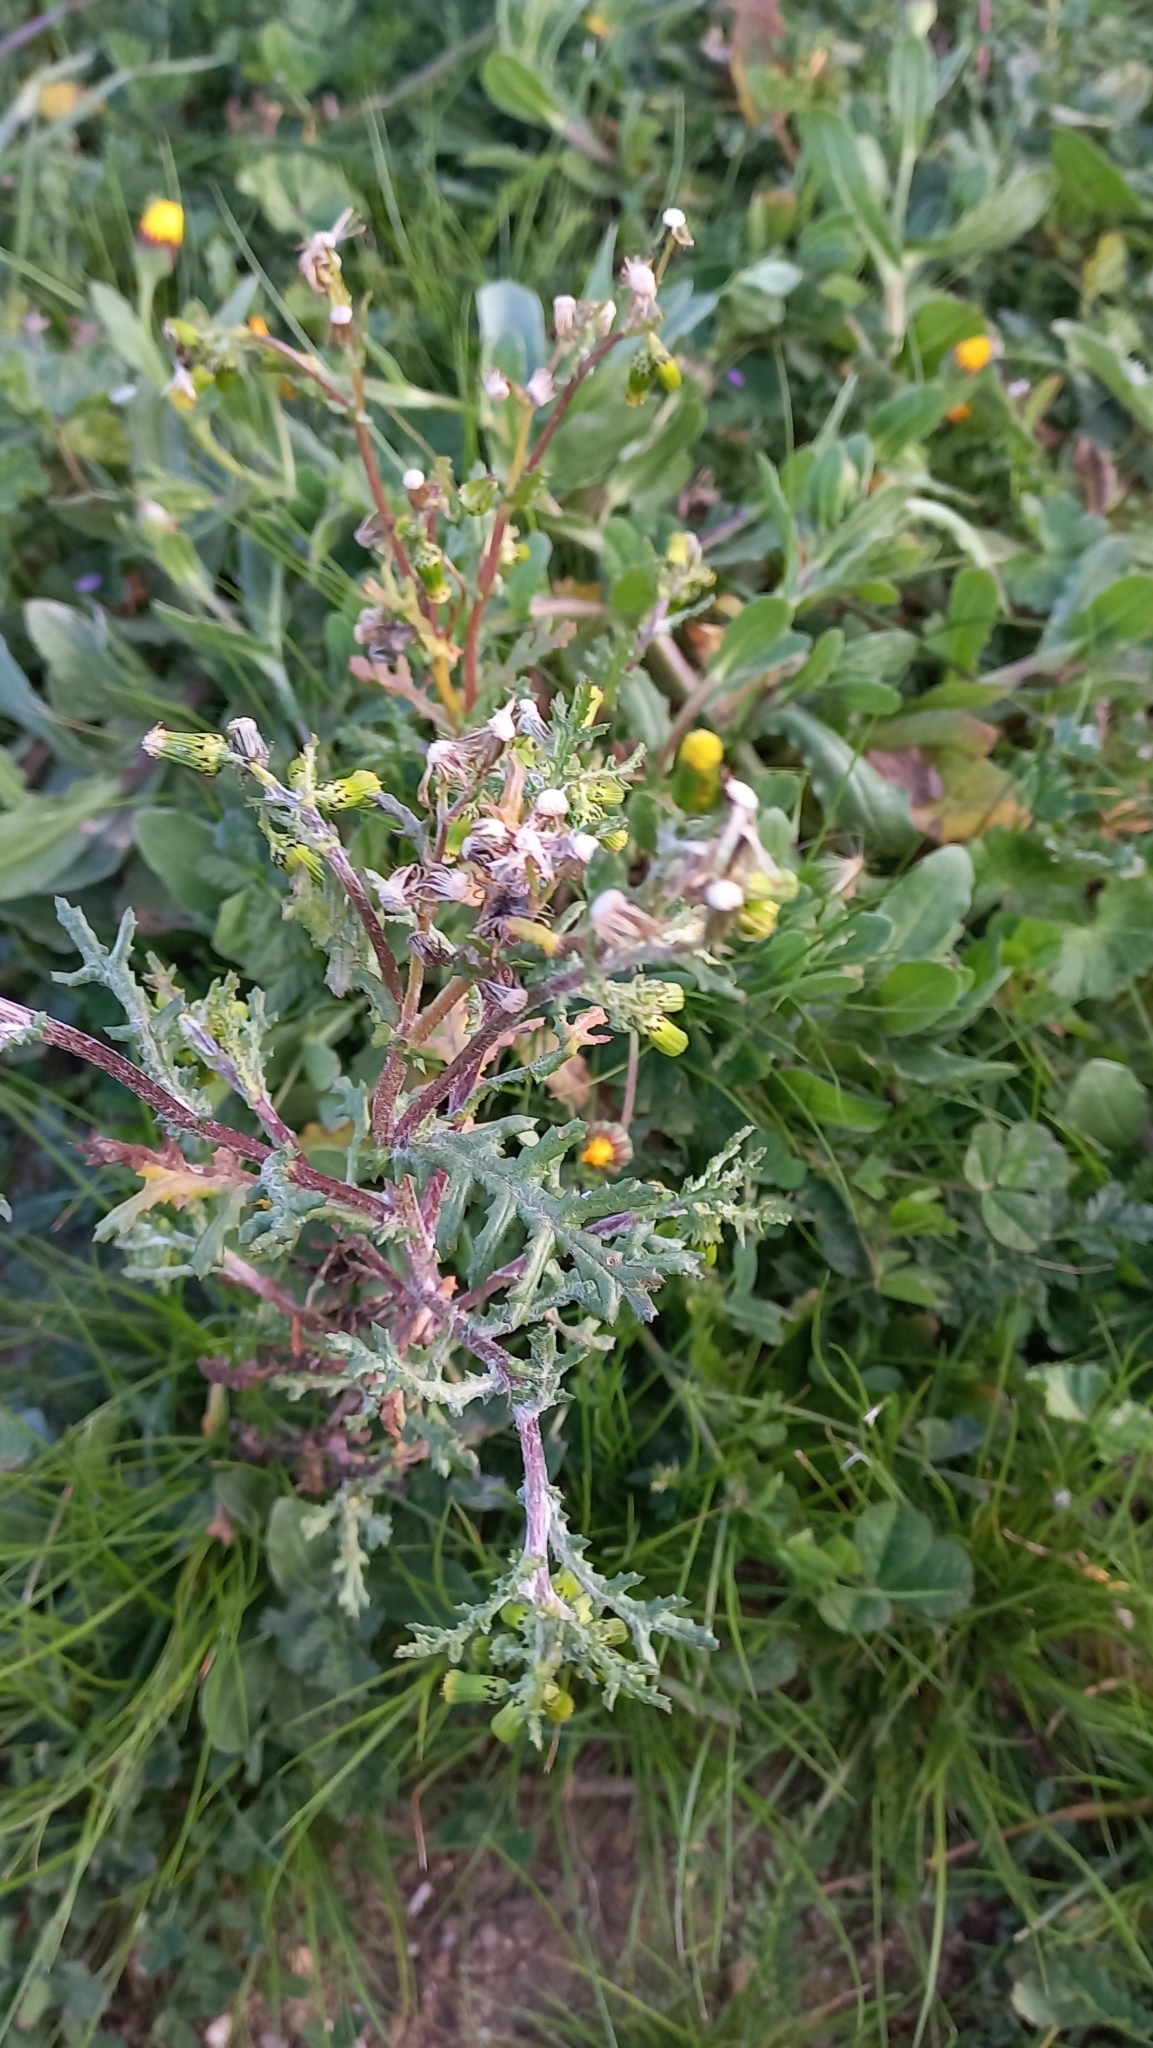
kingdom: Plantae
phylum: Tracheophyta
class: Magnoliopsida
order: Asterales
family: Asteraceae
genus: Senecio
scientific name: Senecio vulgaris
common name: Old-man-in-the-spring
